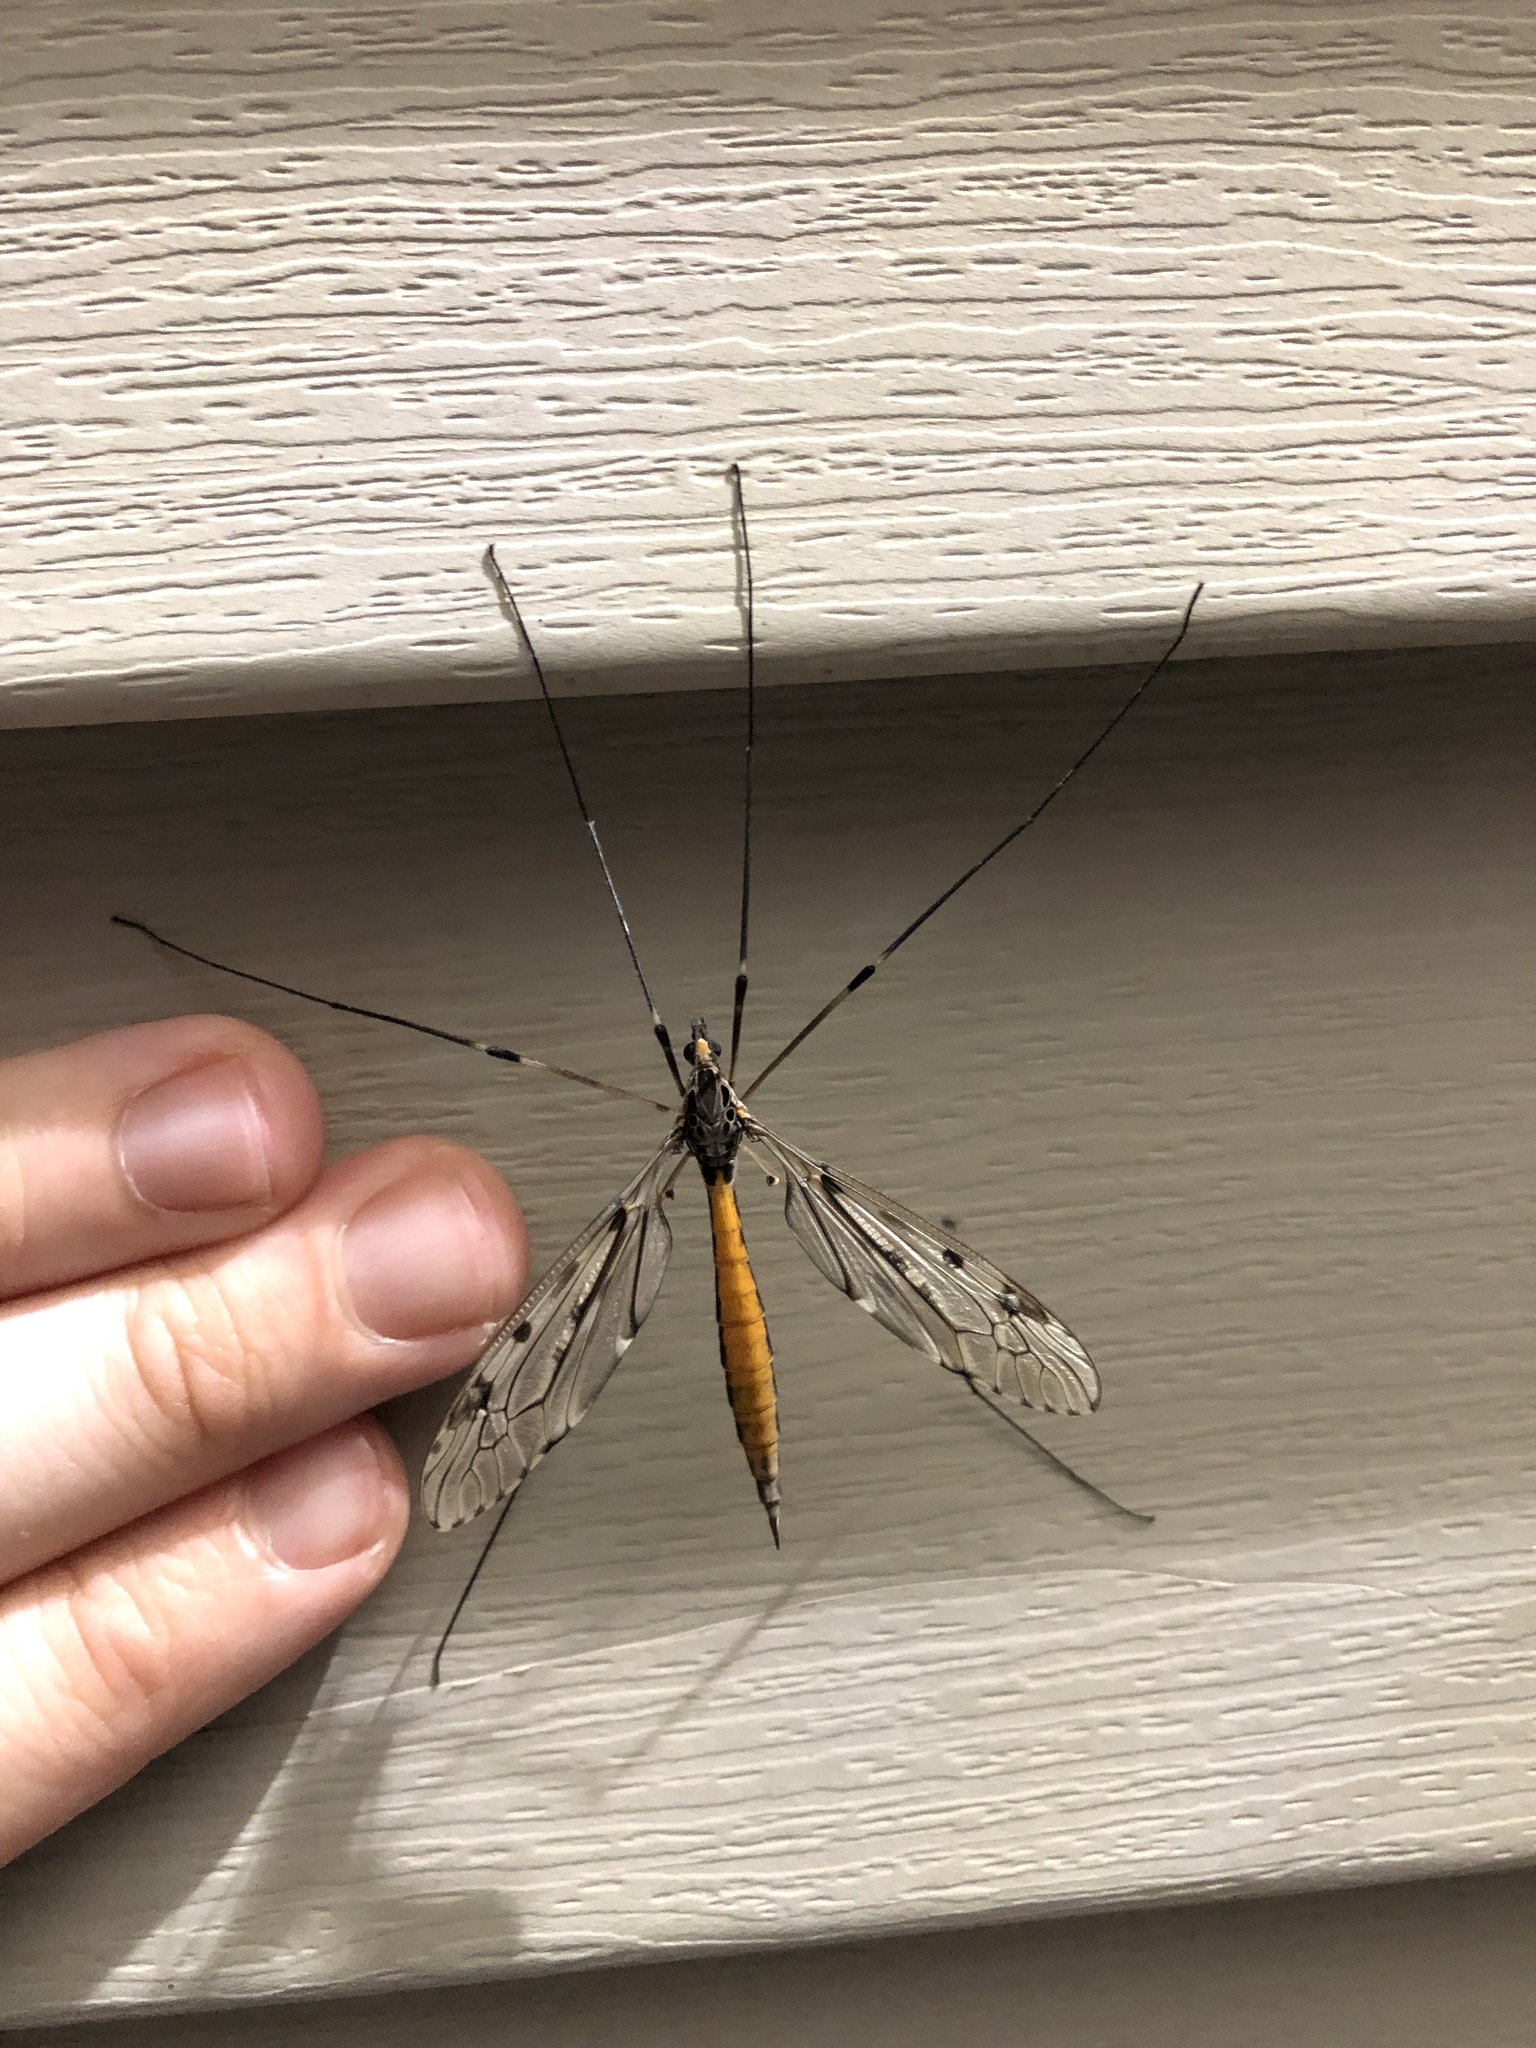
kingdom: Animalia
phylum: Arthropoda
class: Insecta
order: Diptera
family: Tipulidae
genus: Tipula
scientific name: Tipula abdominalis
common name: Giant crane fly
